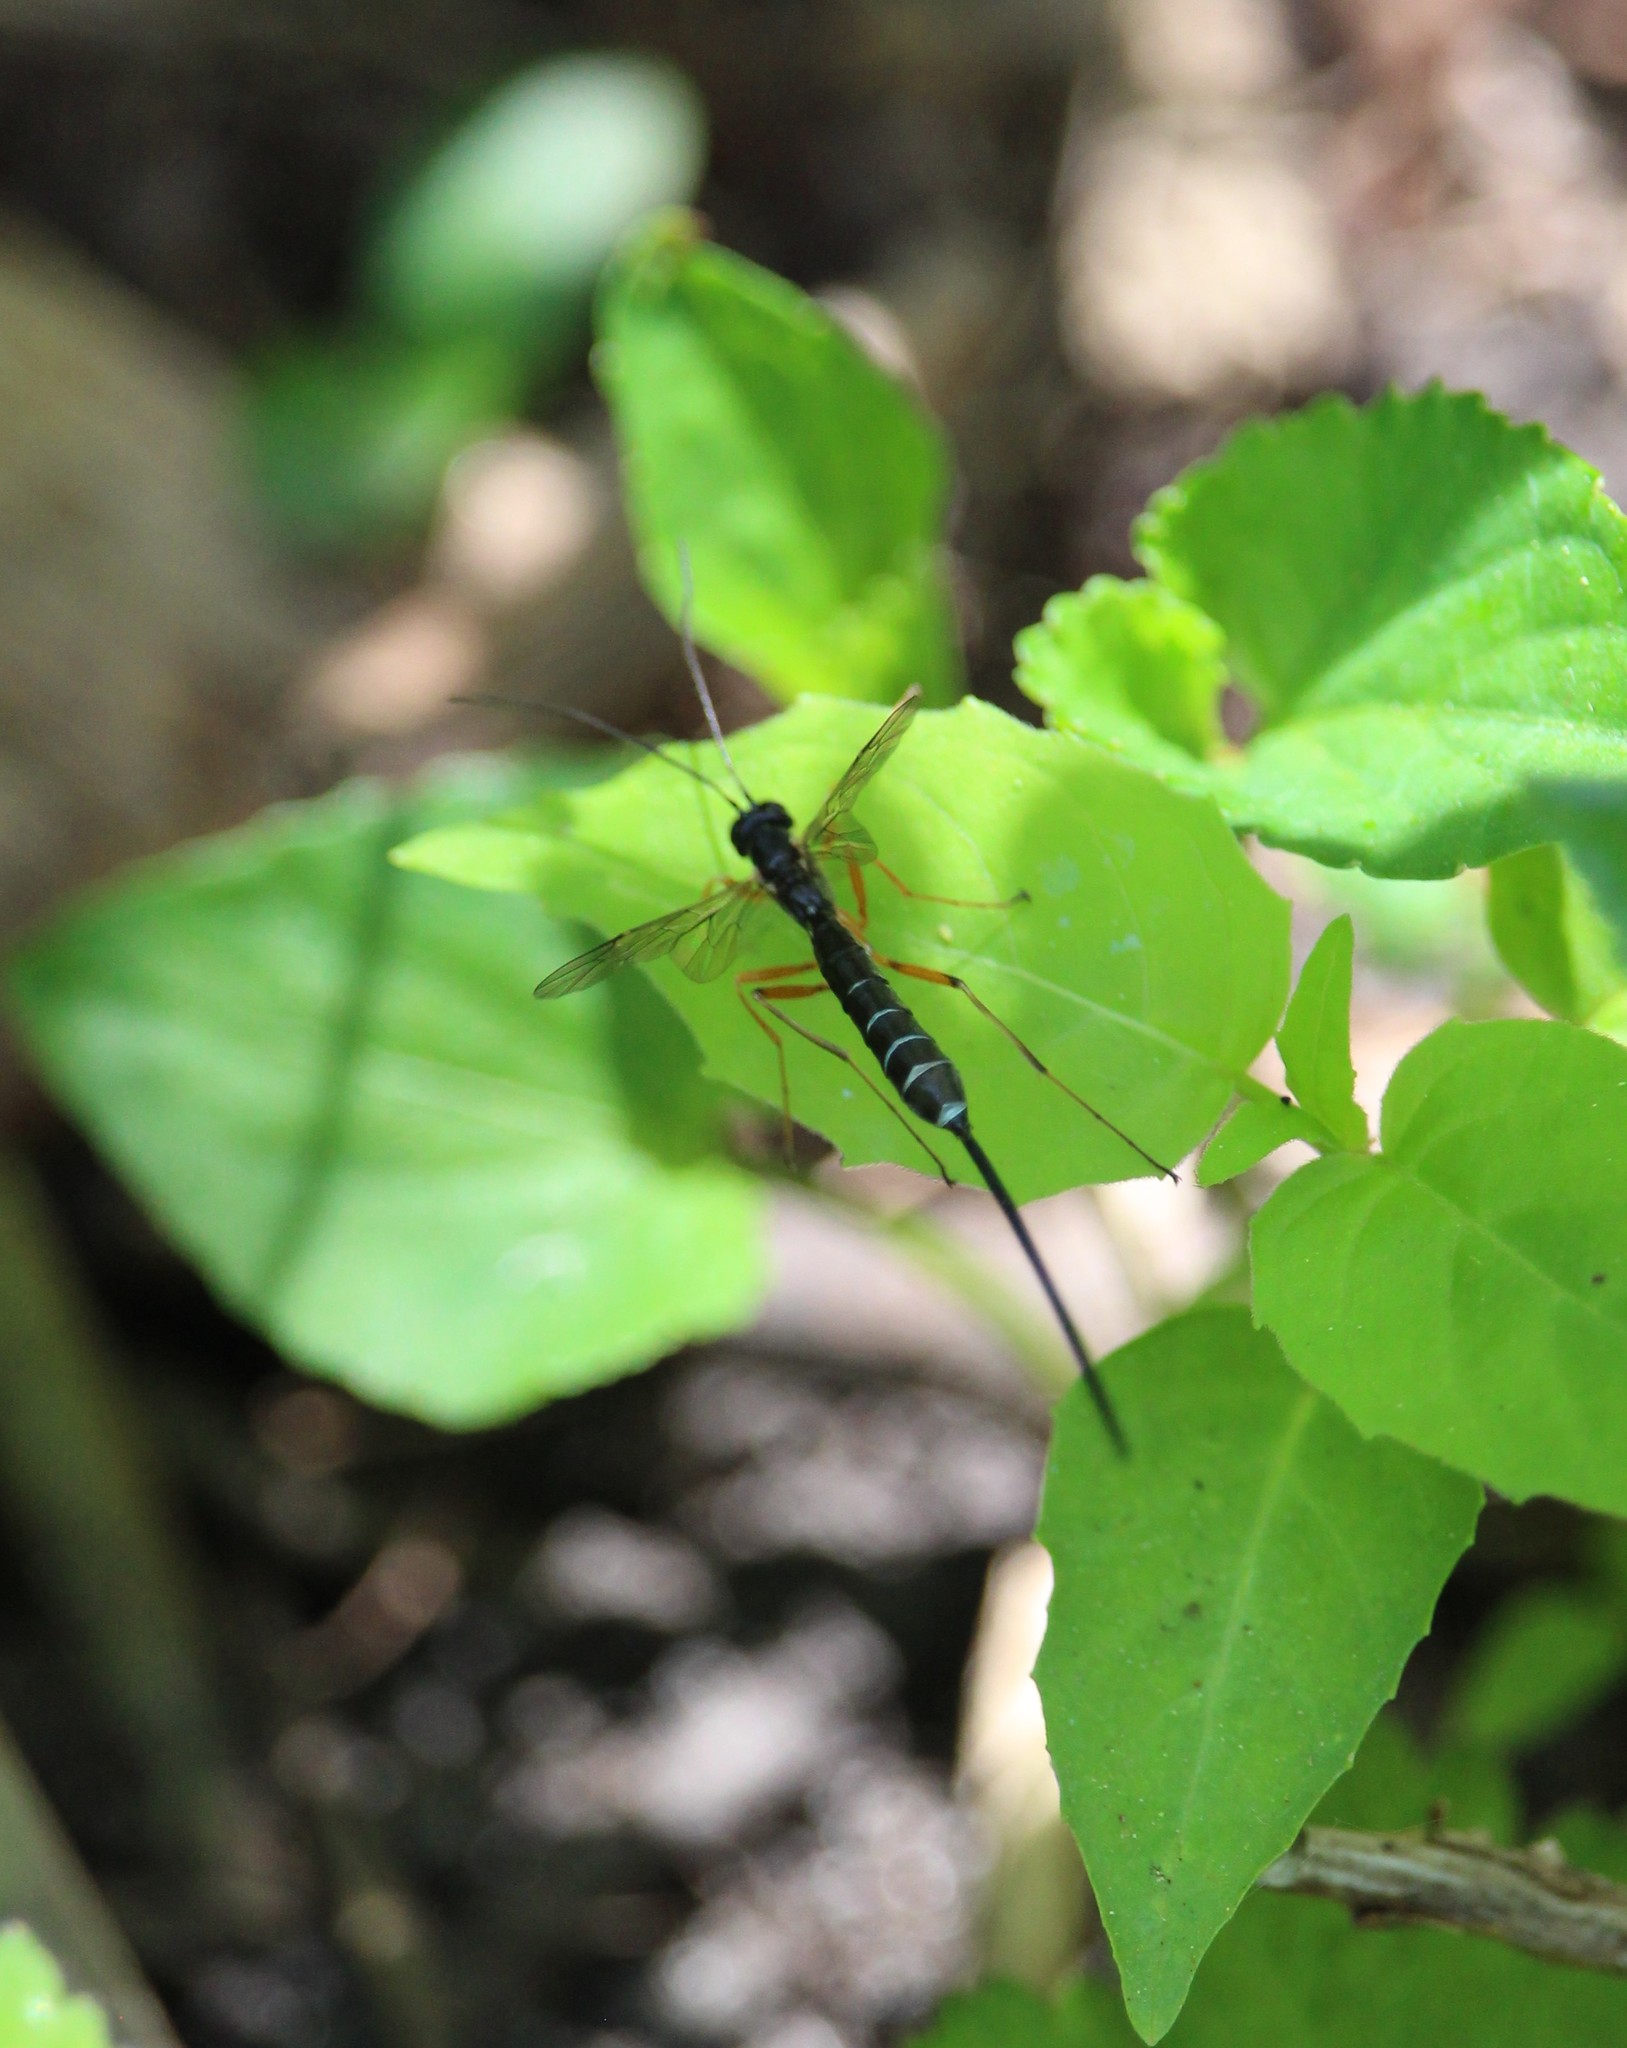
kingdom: Animalia
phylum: Arthropoda
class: Insecta
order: Hymenoptera
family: Ichneumonidae
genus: Rhyssella
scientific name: Rhyssella nitida
